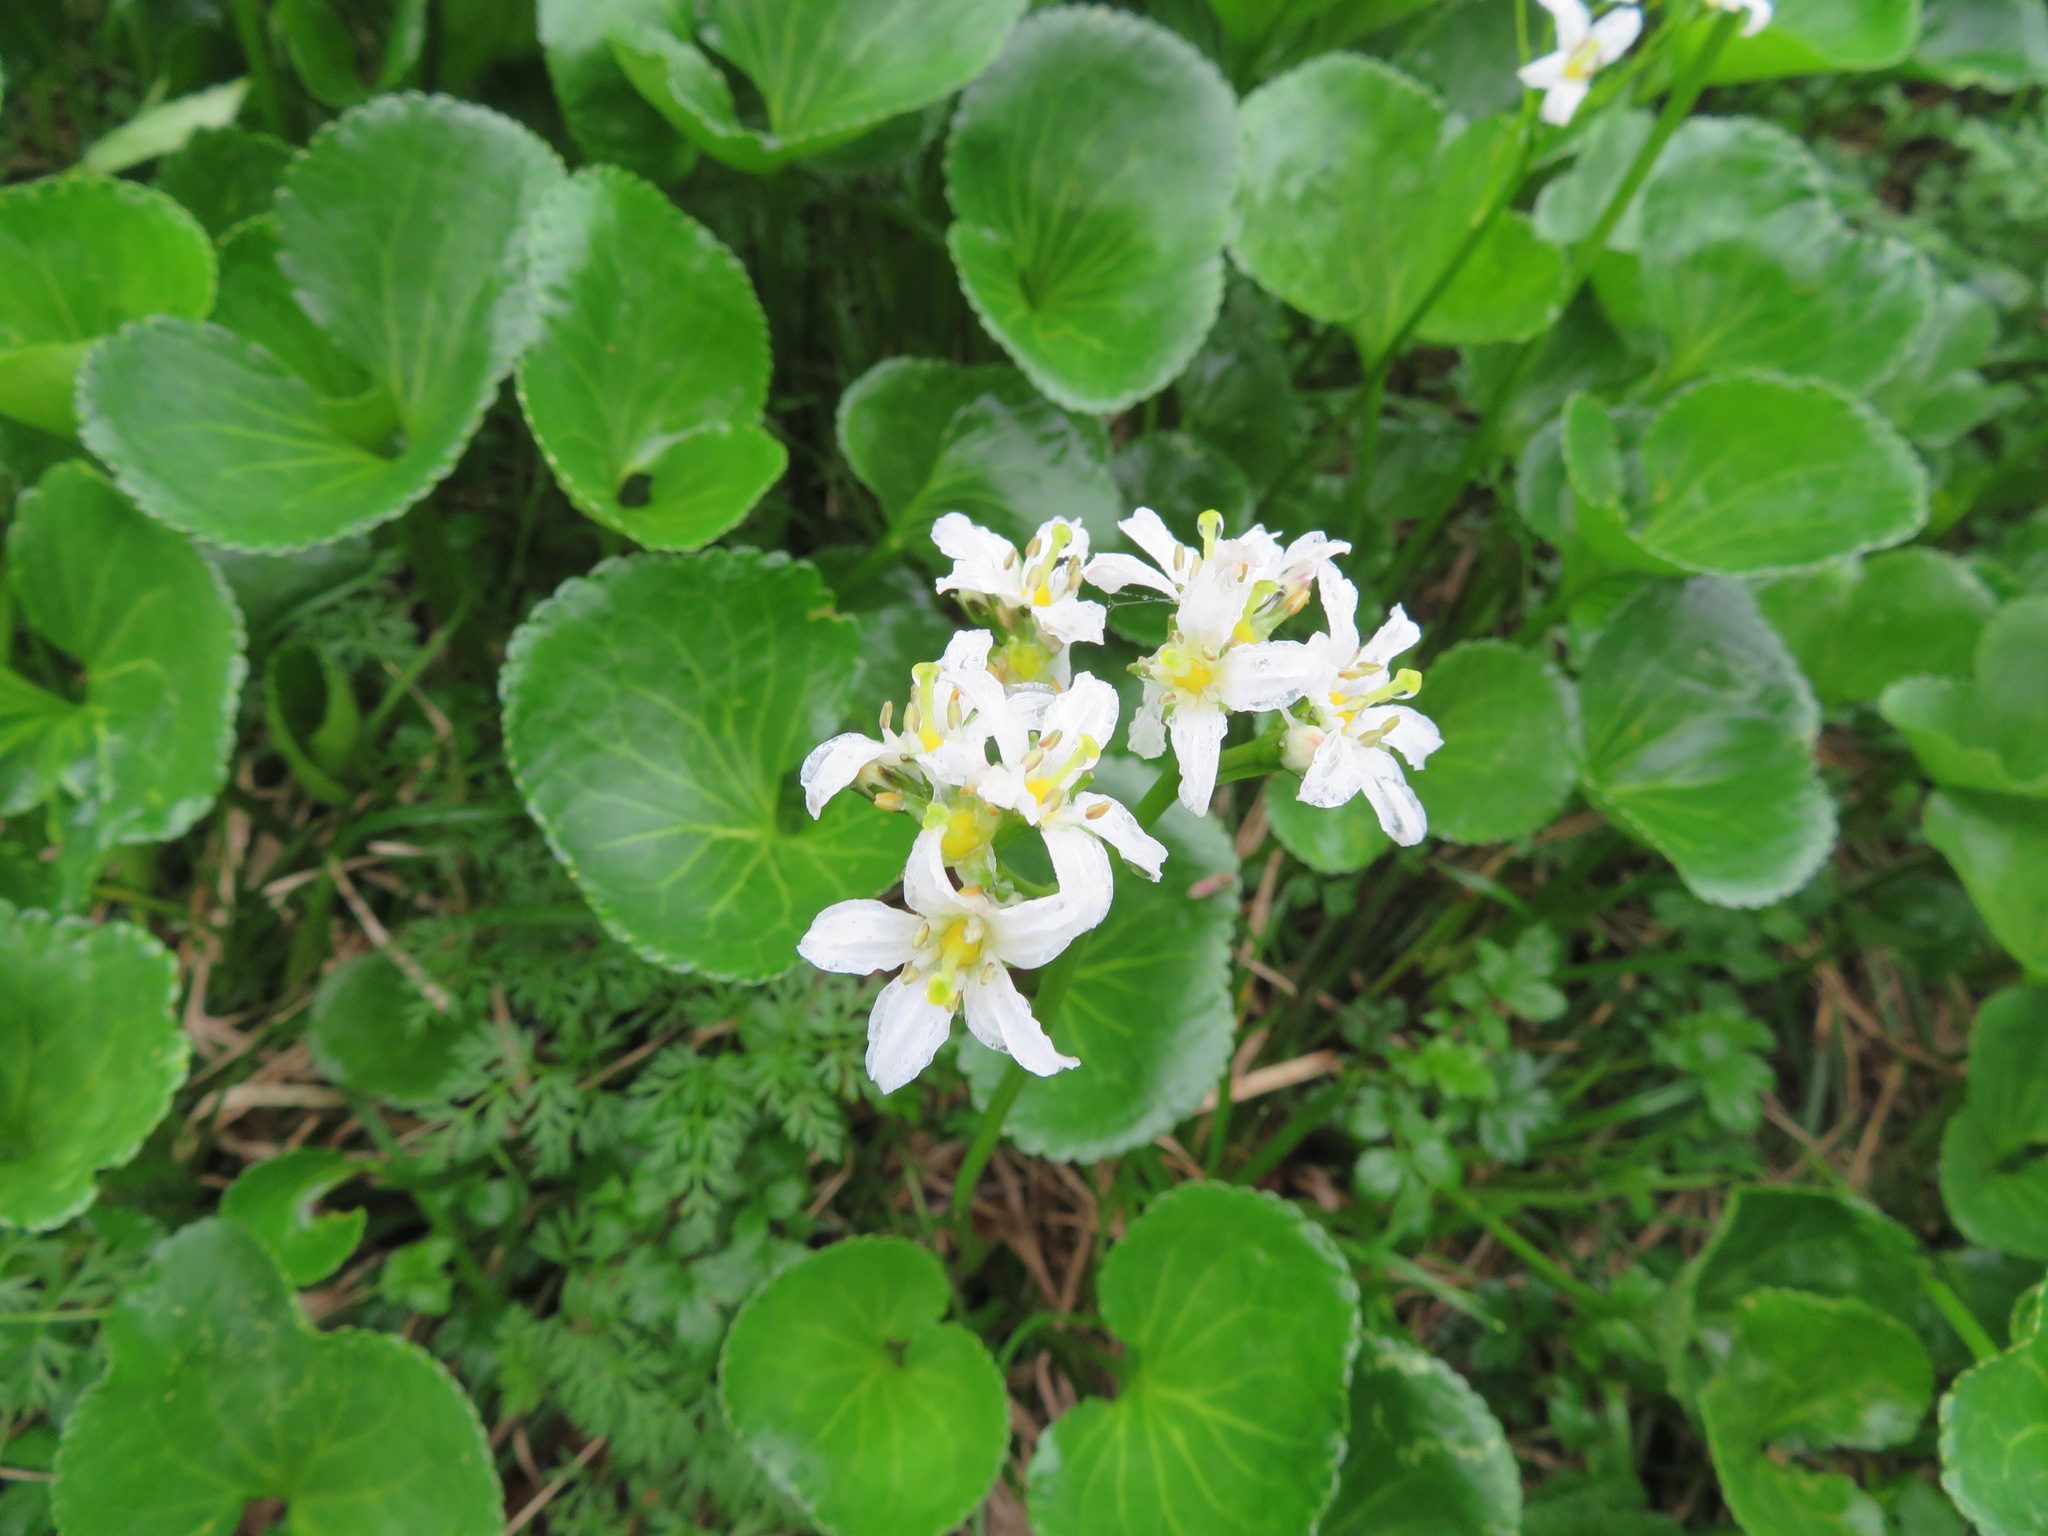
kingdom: Plantae
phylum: Tracheophyta
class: Magnoliopsida
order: Asterales
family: Menyanthaceae
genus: Nephrophyllidium
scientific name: Nephrophyllidium crista-galli
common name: Deer-cabbage
